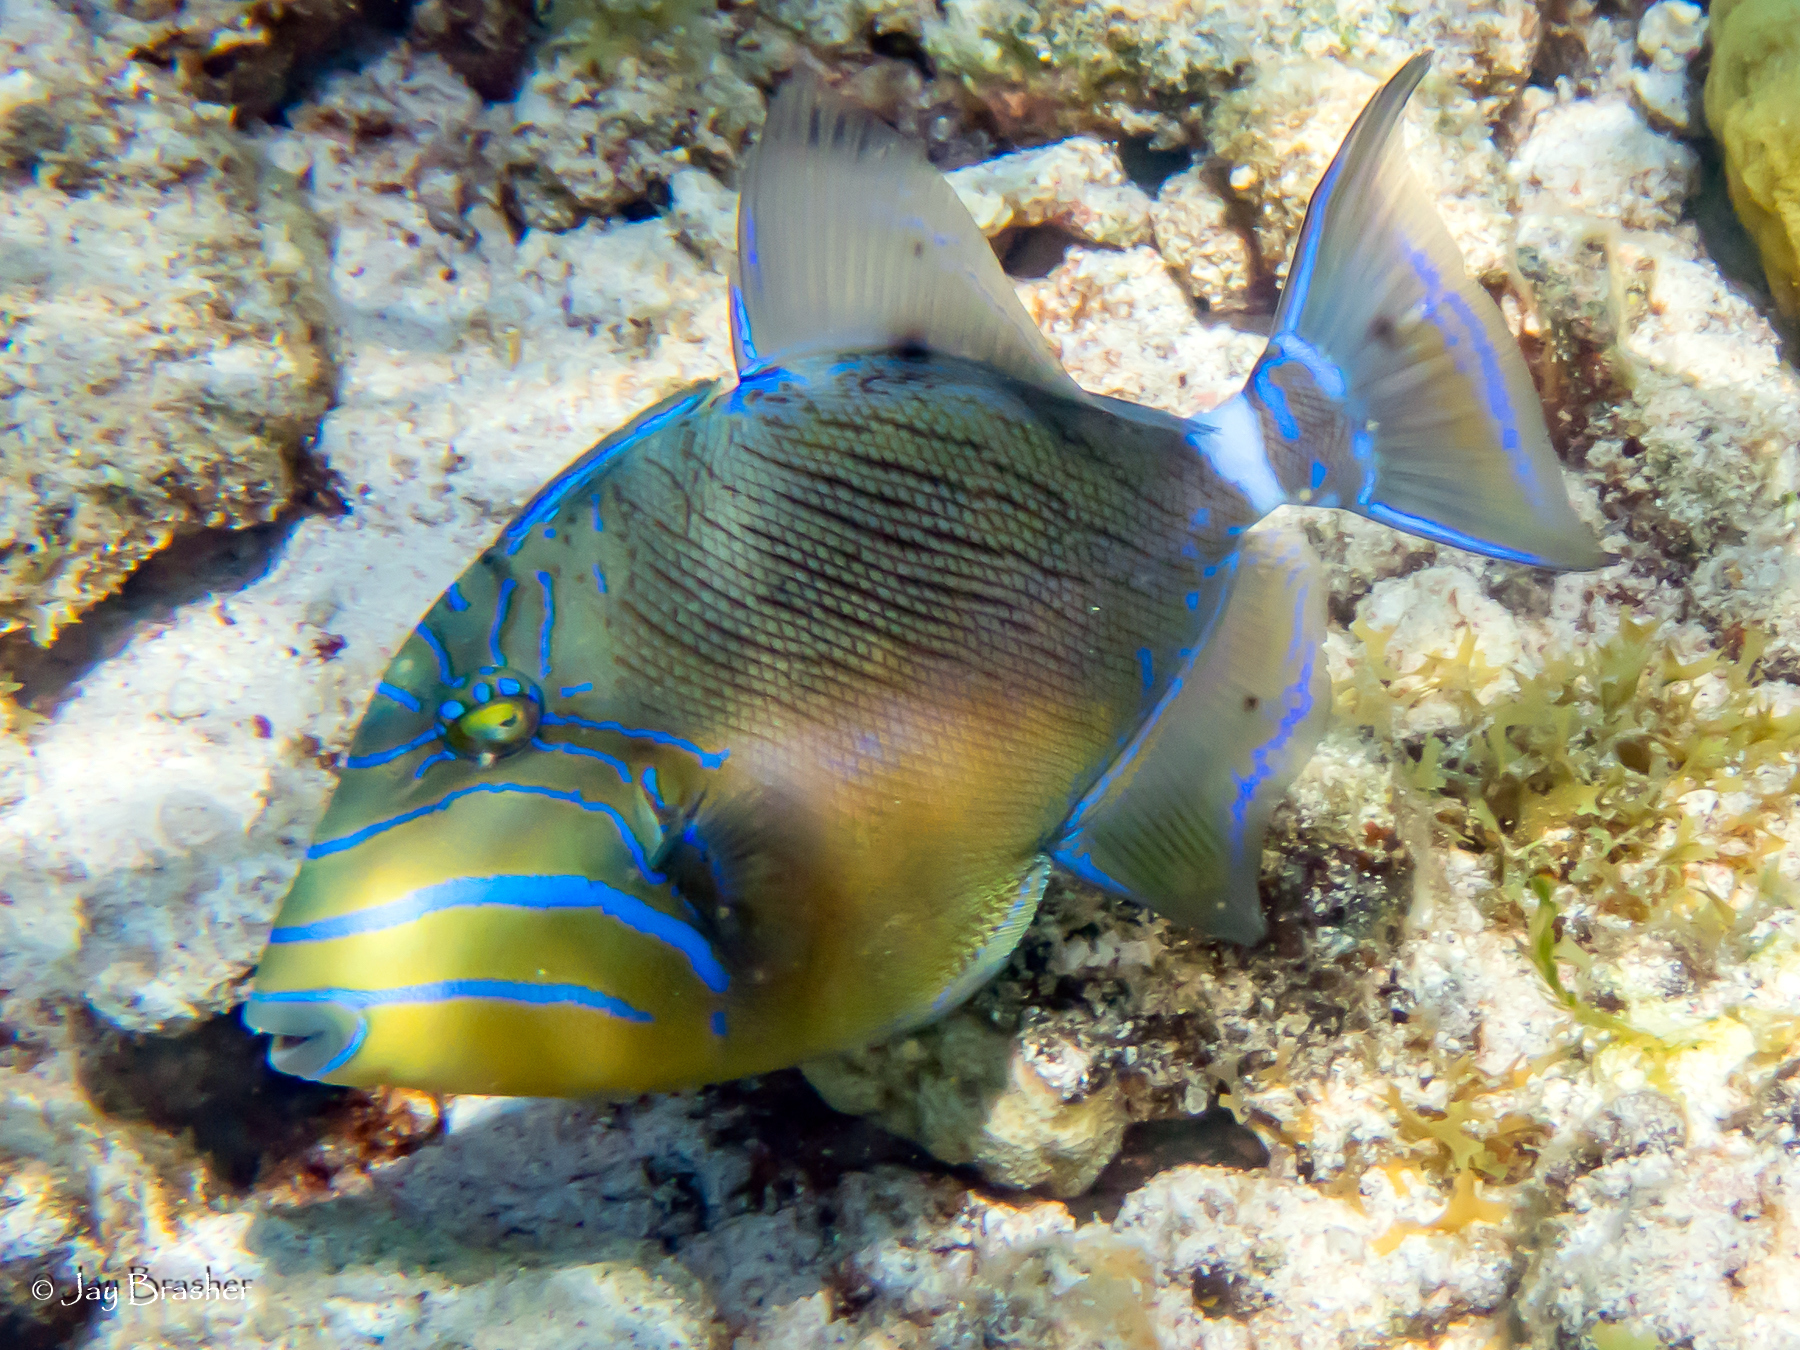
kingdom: Animalia
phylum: Chordata
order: Tetraodontiformes
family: Balistidae
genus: Balistes
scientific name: Balistes vetula
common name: Queen triggerfish
